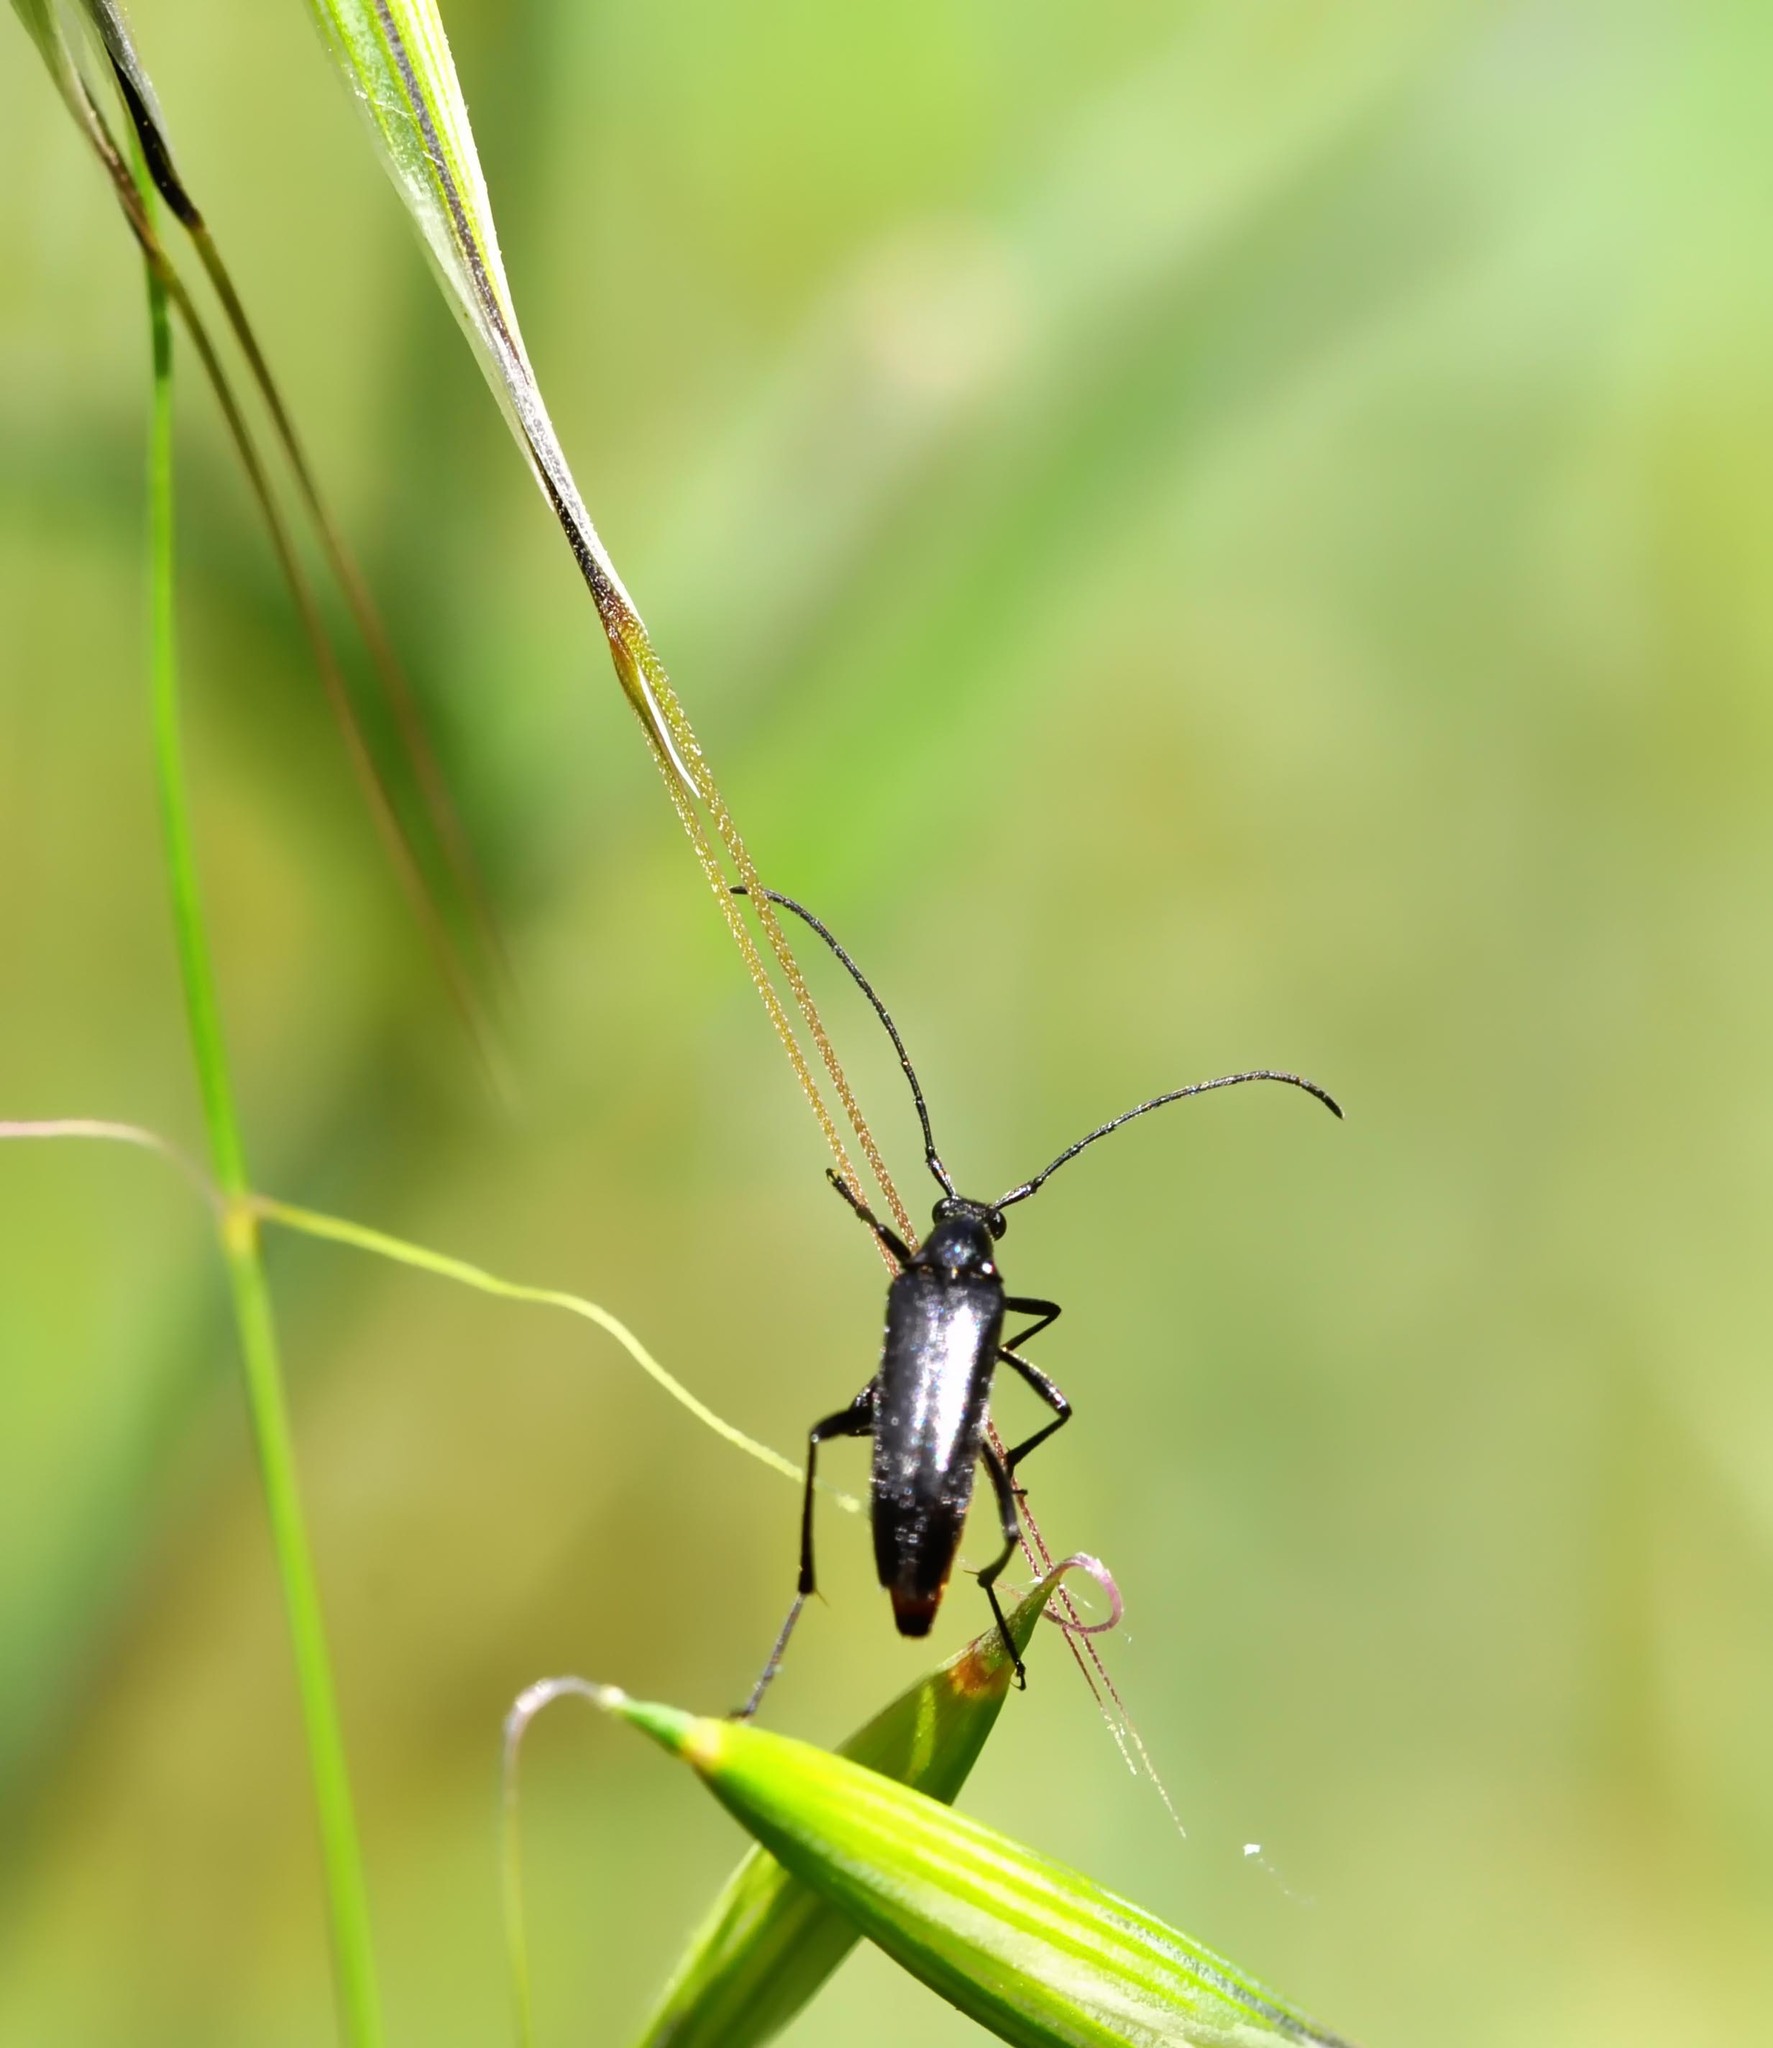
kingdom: Animalia
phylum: Arthropoda
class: Insecta
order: Coleoptera
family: Cerambycidae
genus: Stenurella
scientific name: Stenurella nigra
